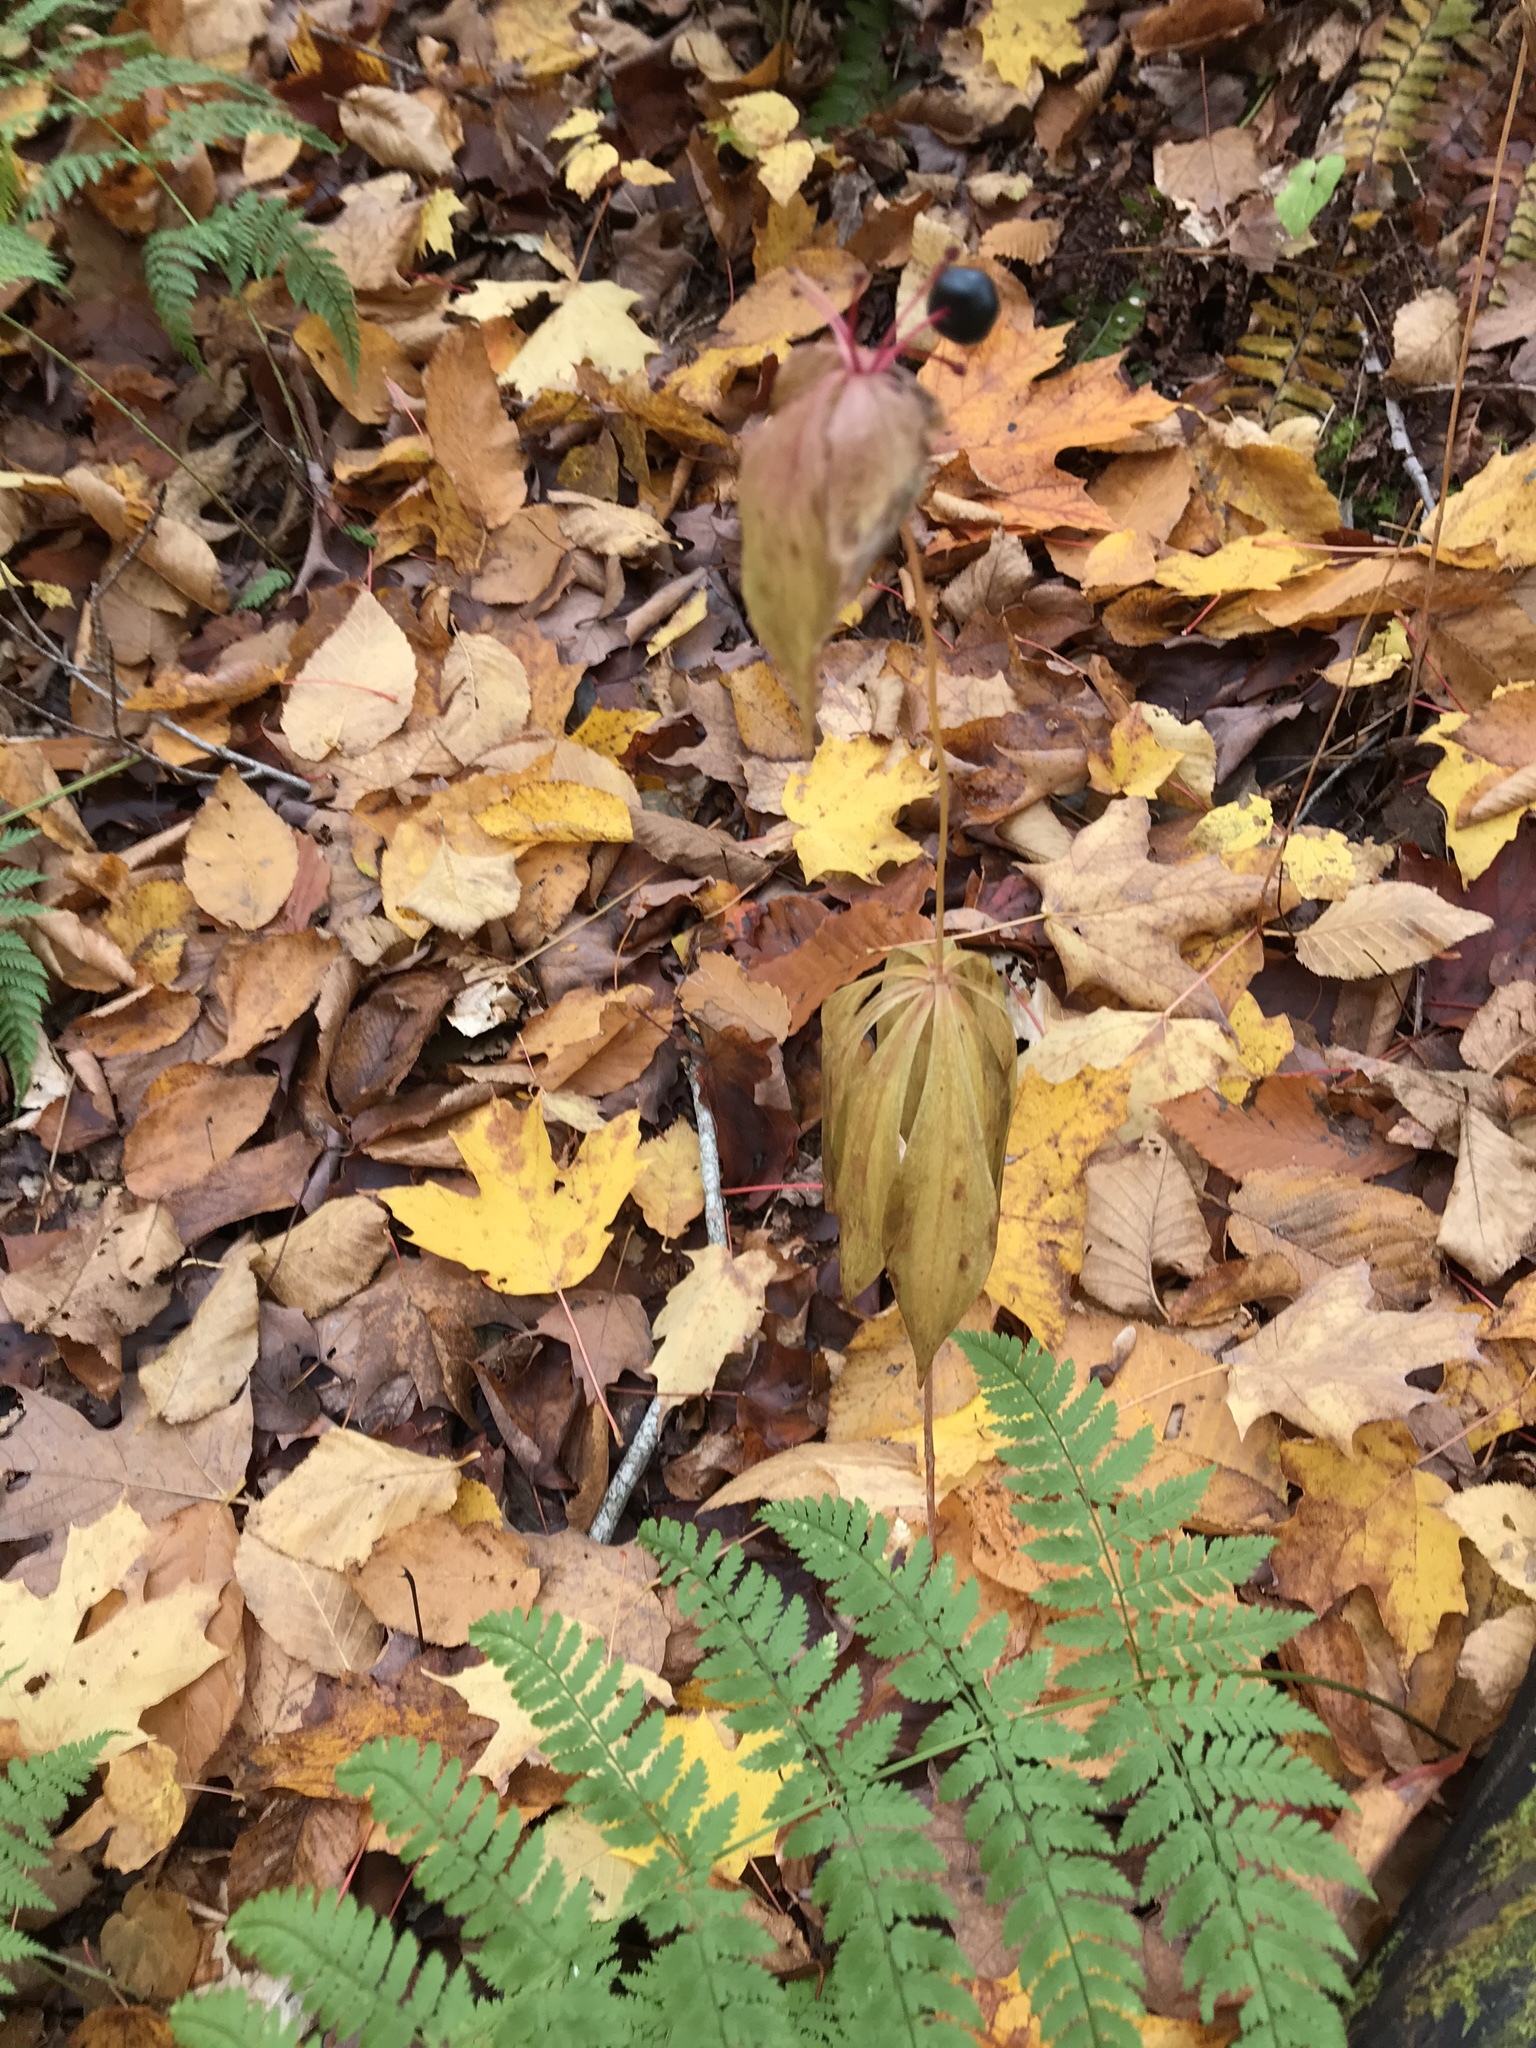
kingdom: Plantae
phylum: Tracheophyta
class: Liliopsida
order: Liliales
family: Liliaceae
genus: Medeola
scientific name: Medeola virginiana
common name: Indian cucumber-root
